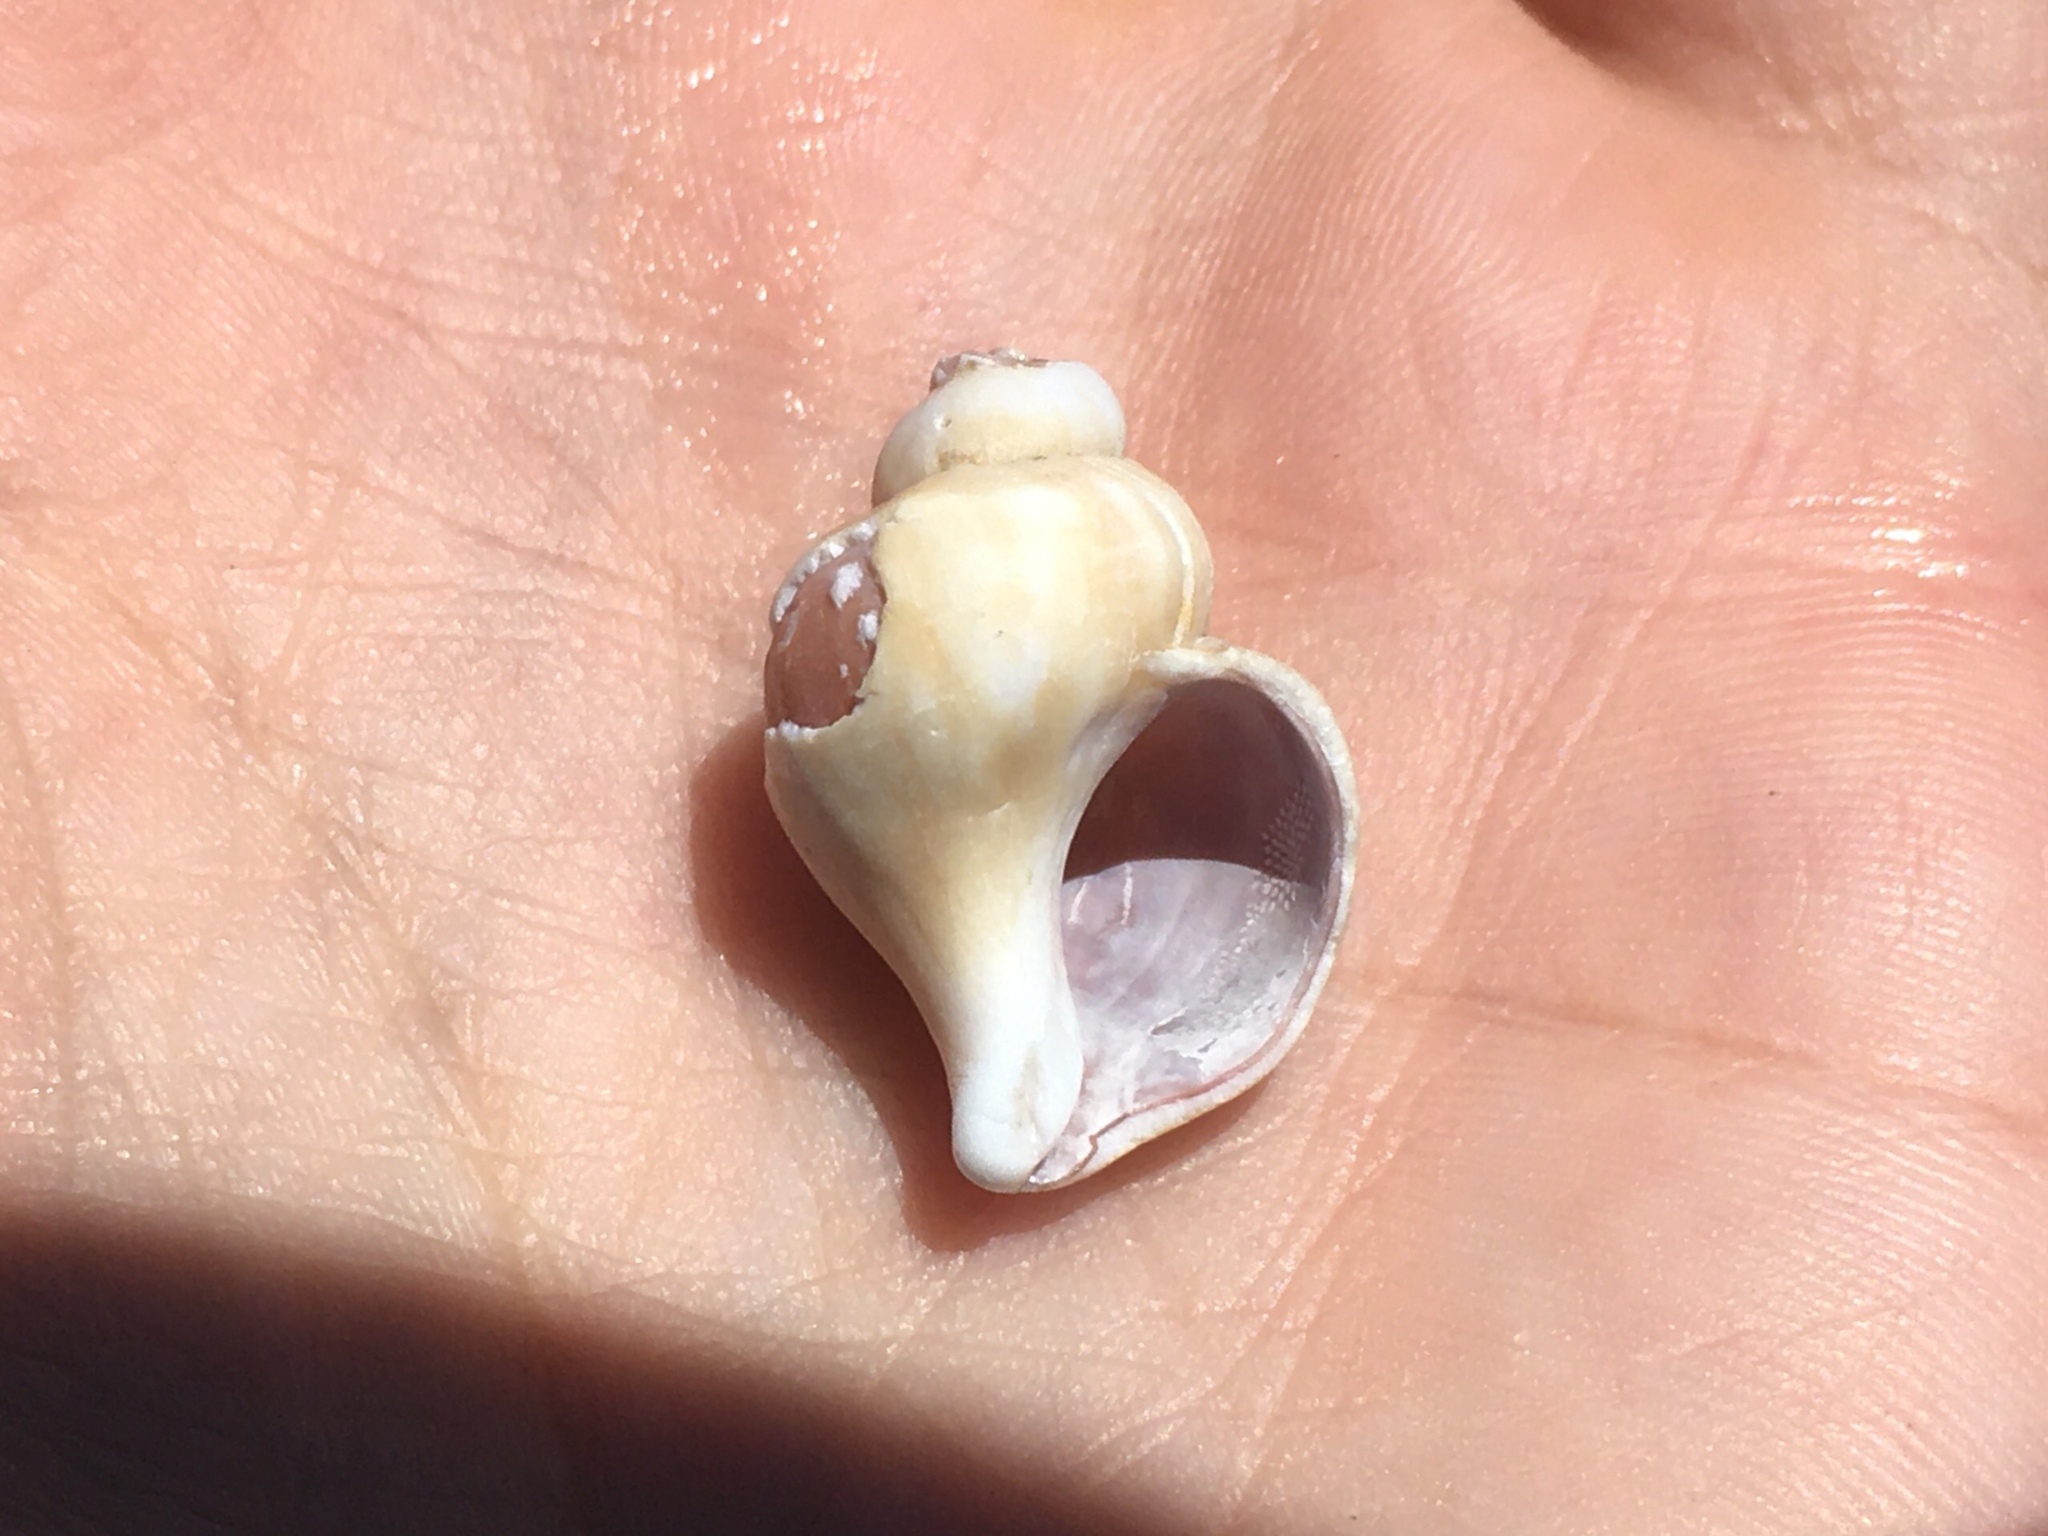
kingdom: Animalia
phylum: Mollusca
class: Gastropoda
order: Neogastropoda
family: Muricidae
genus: Trophon
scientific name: Trophon geversianus
